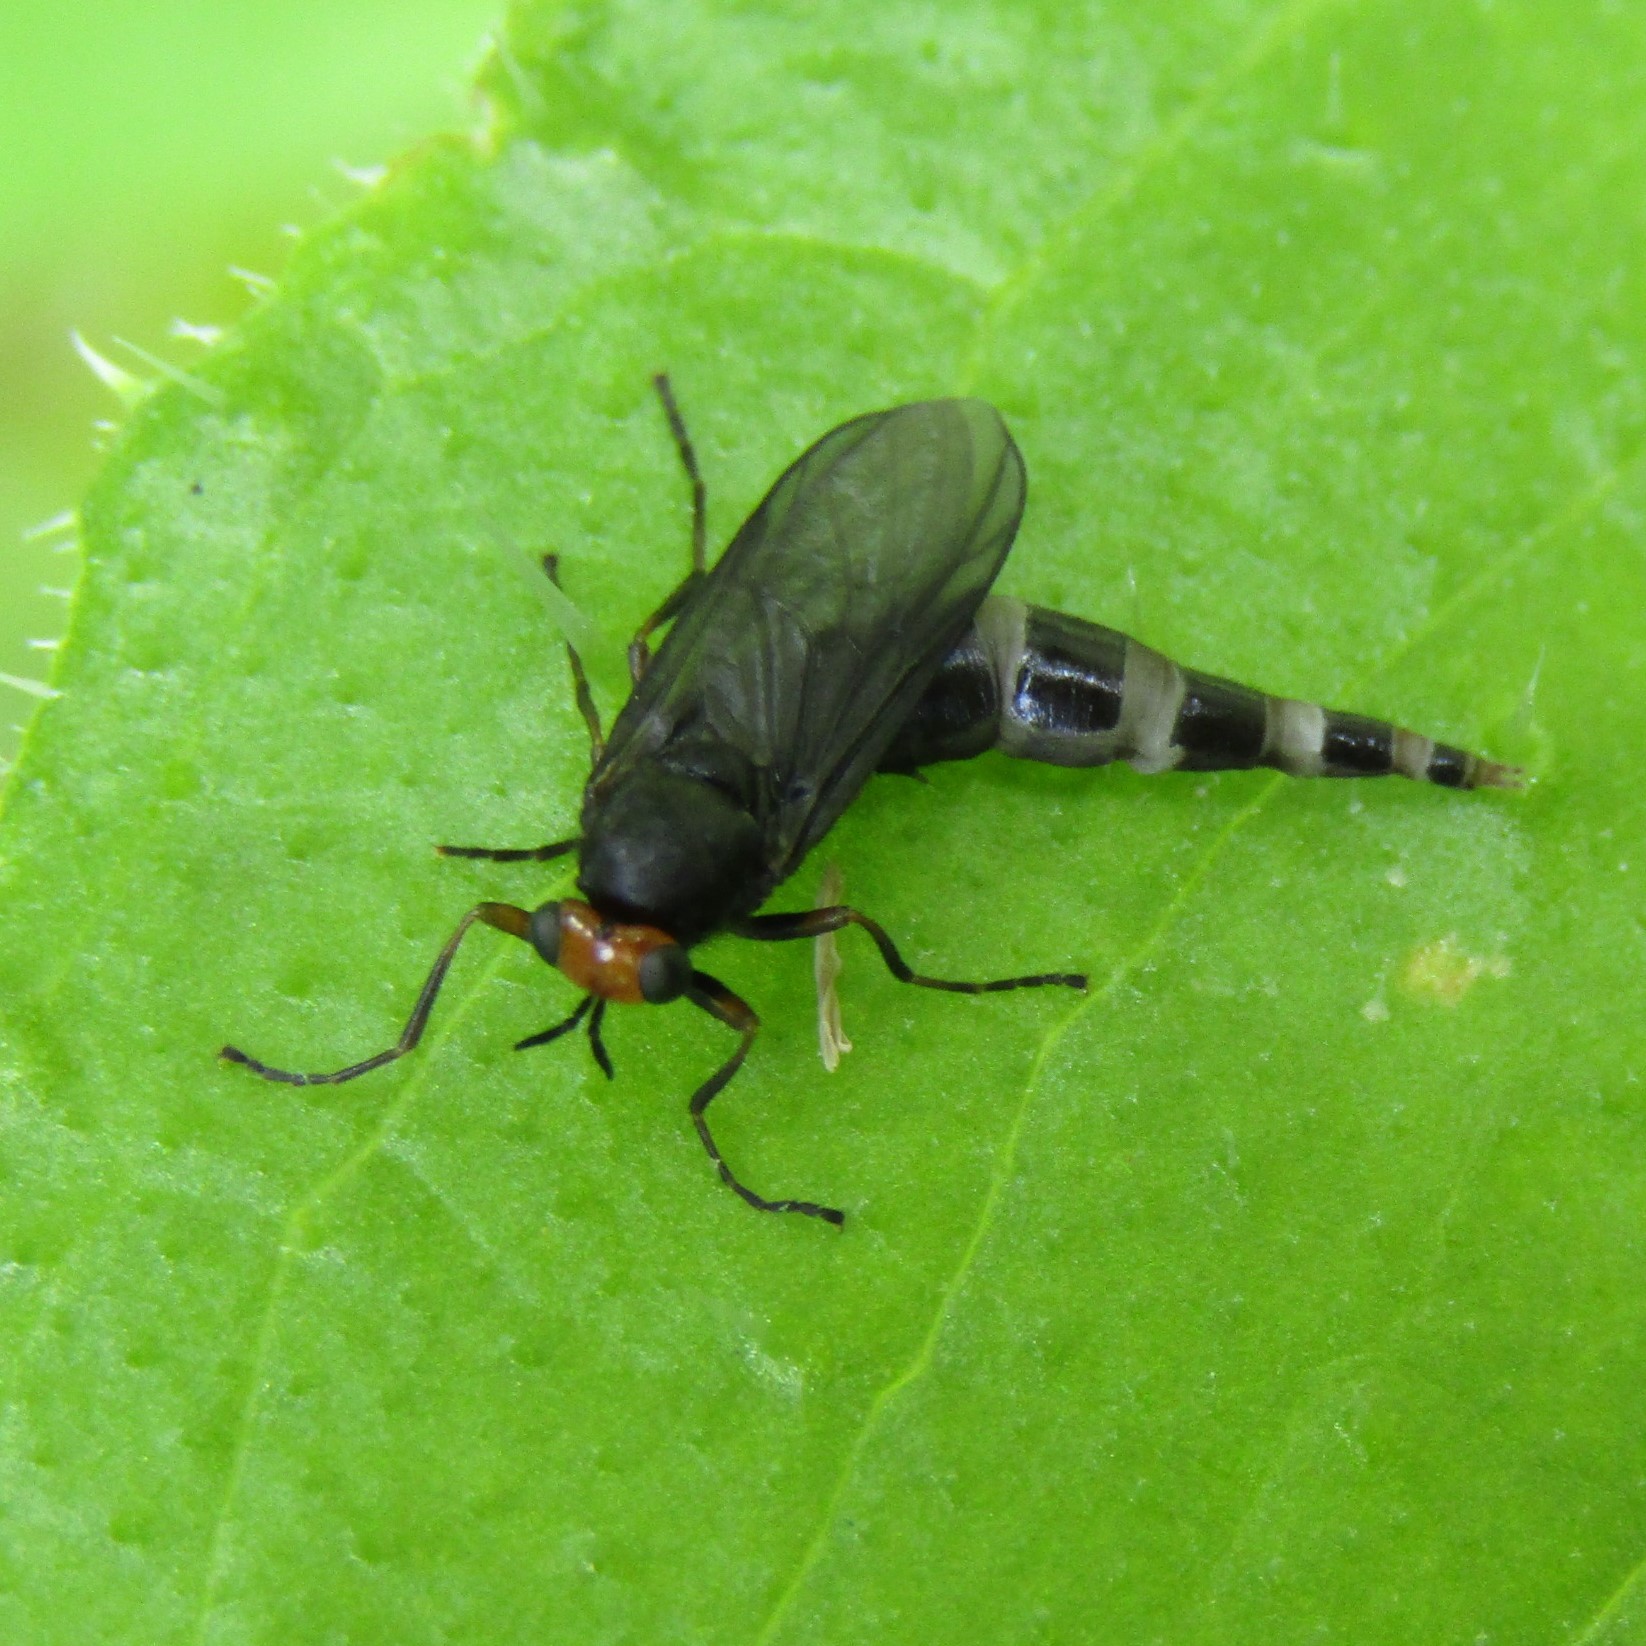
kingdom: Animalia
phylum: Arthropoda
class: Insecta
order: Diptera
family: Stratiomyidae
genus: Inopus
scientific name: Inopus rubriceps
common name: Soldier fly
